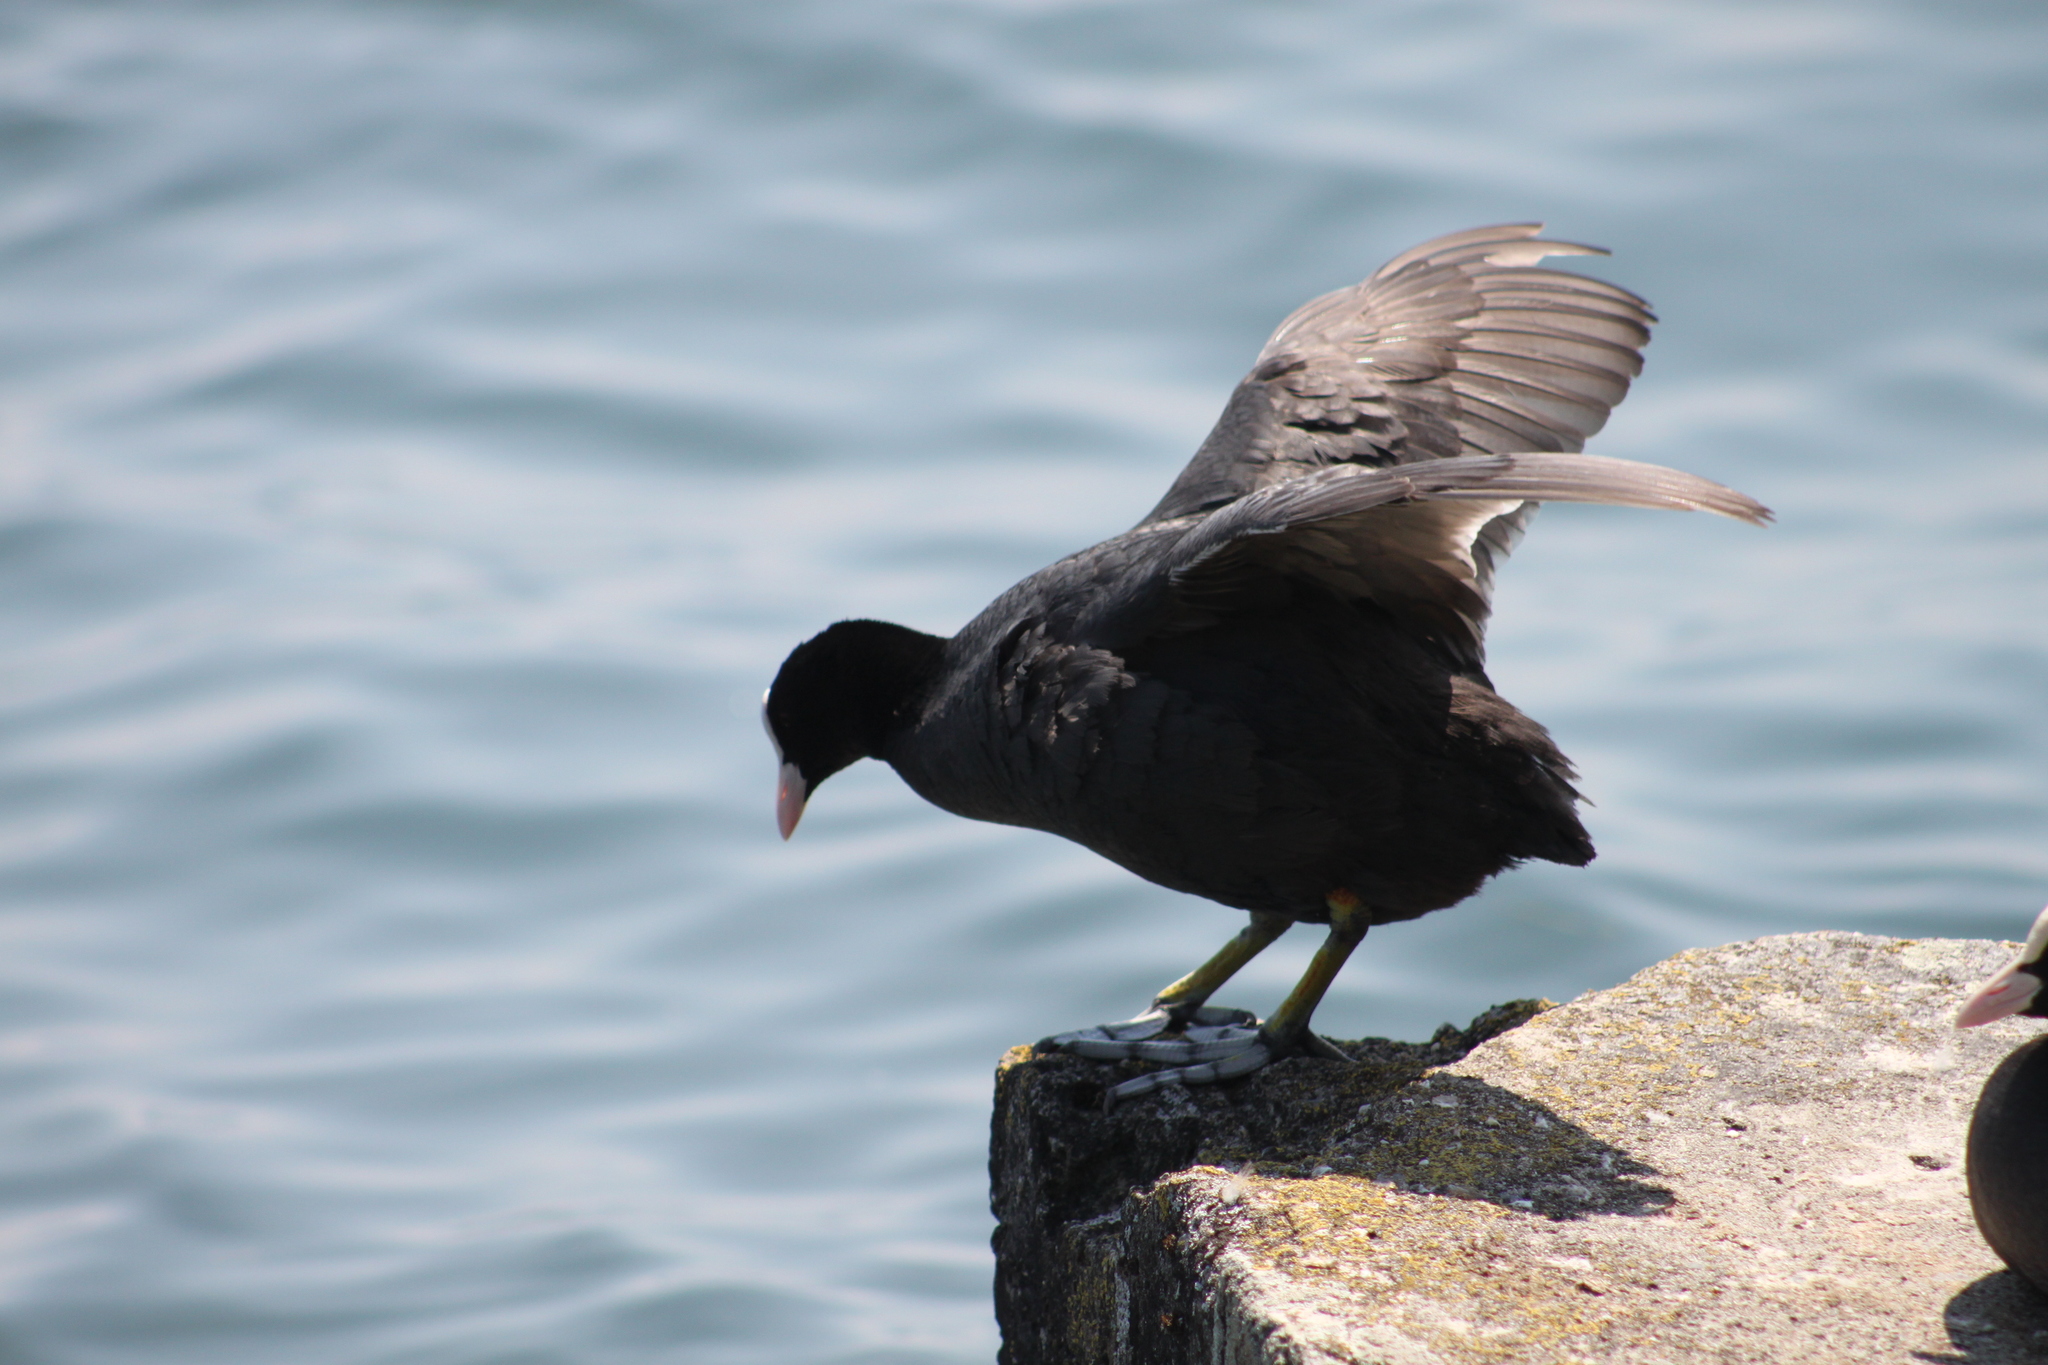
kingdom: Animalia
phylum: Chordata
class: Aves
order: Gruiformes
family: Rallidae
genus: Fulica
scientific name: Fulica atra
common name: Eurasian coot
